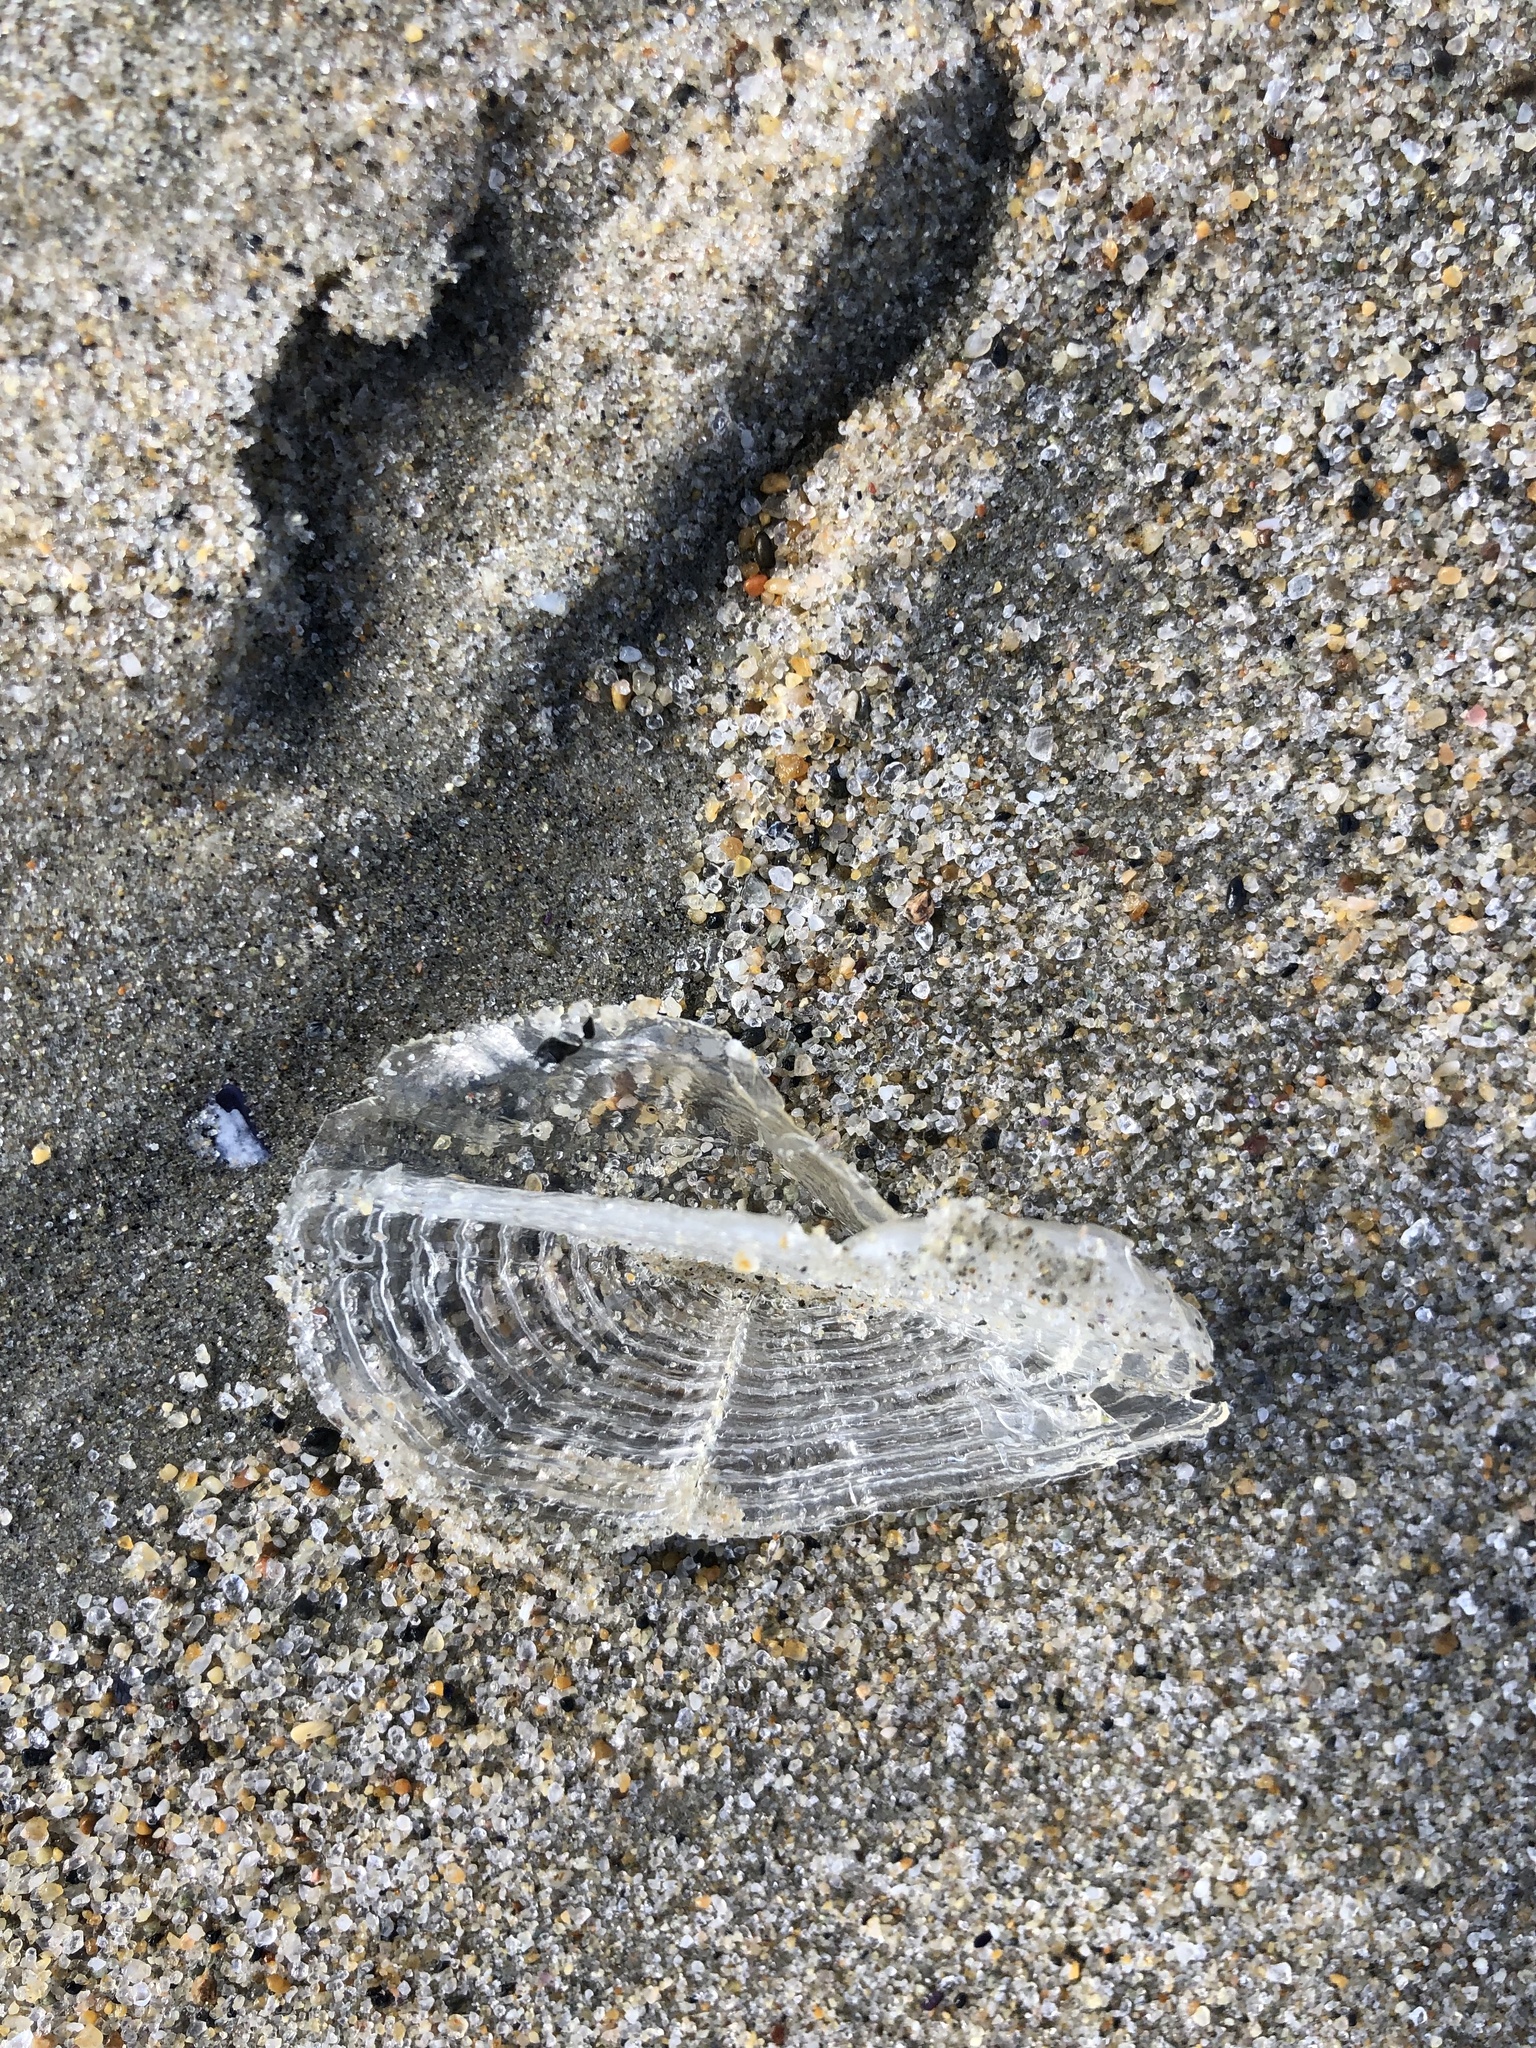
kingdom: Animalia
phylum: Cnidaria
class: Hydrozoa
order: Anthoathecata
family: Porpitidae
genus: Velella
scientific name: Velella velella
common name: By-the-wind-sailor
